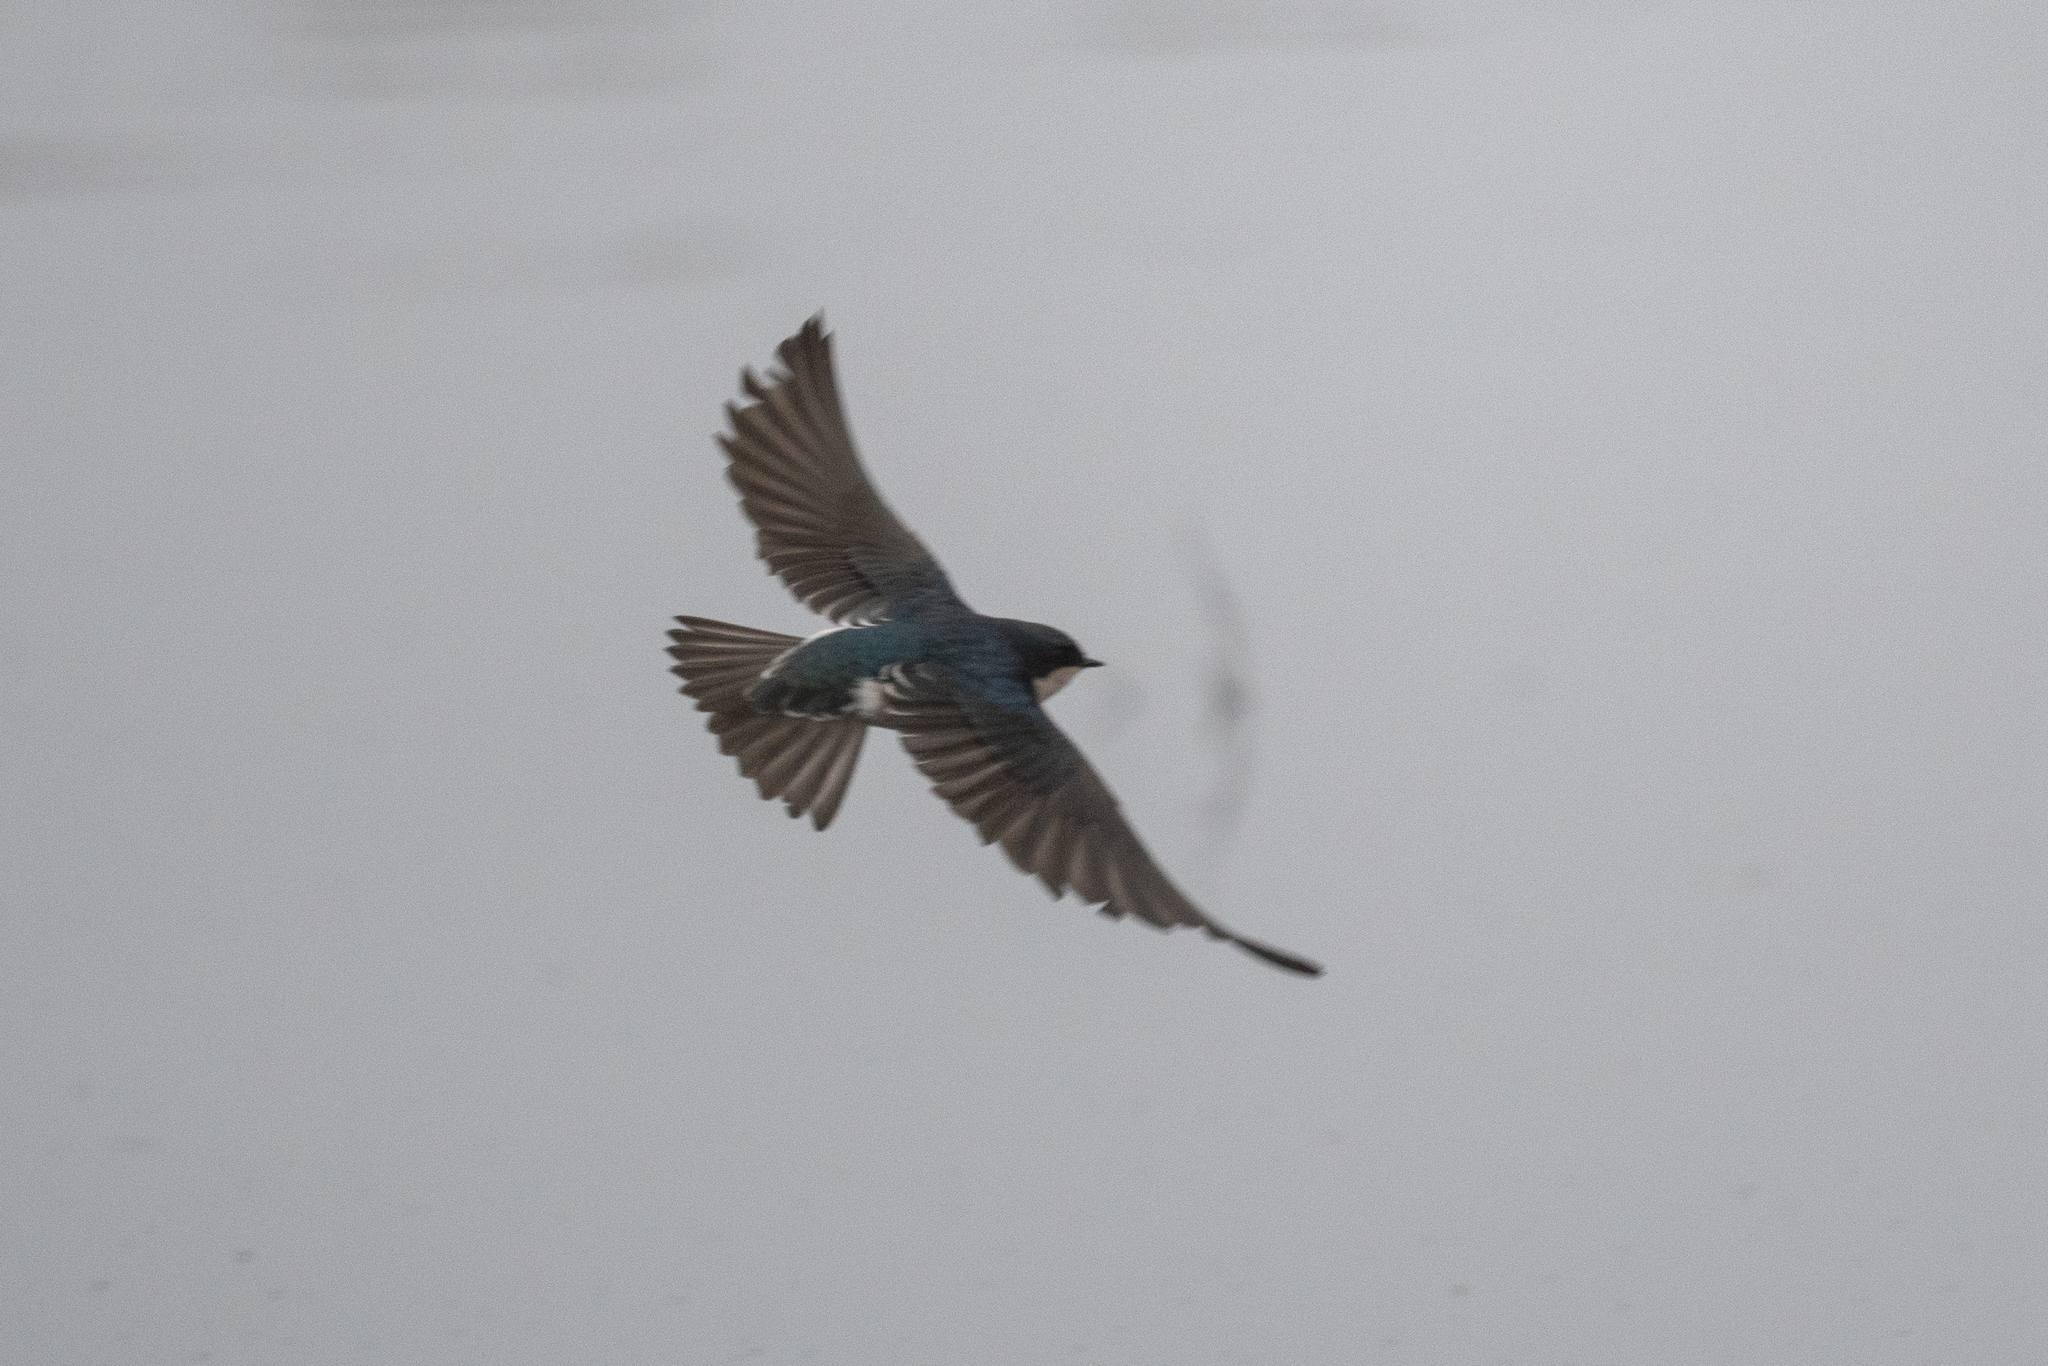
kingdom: Animalia
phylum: Chordata
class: Aves
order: Passeriformes
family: Hirundinidae
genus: Tachycineta
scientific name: Tachycineta bicolor
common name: Tree swallow
